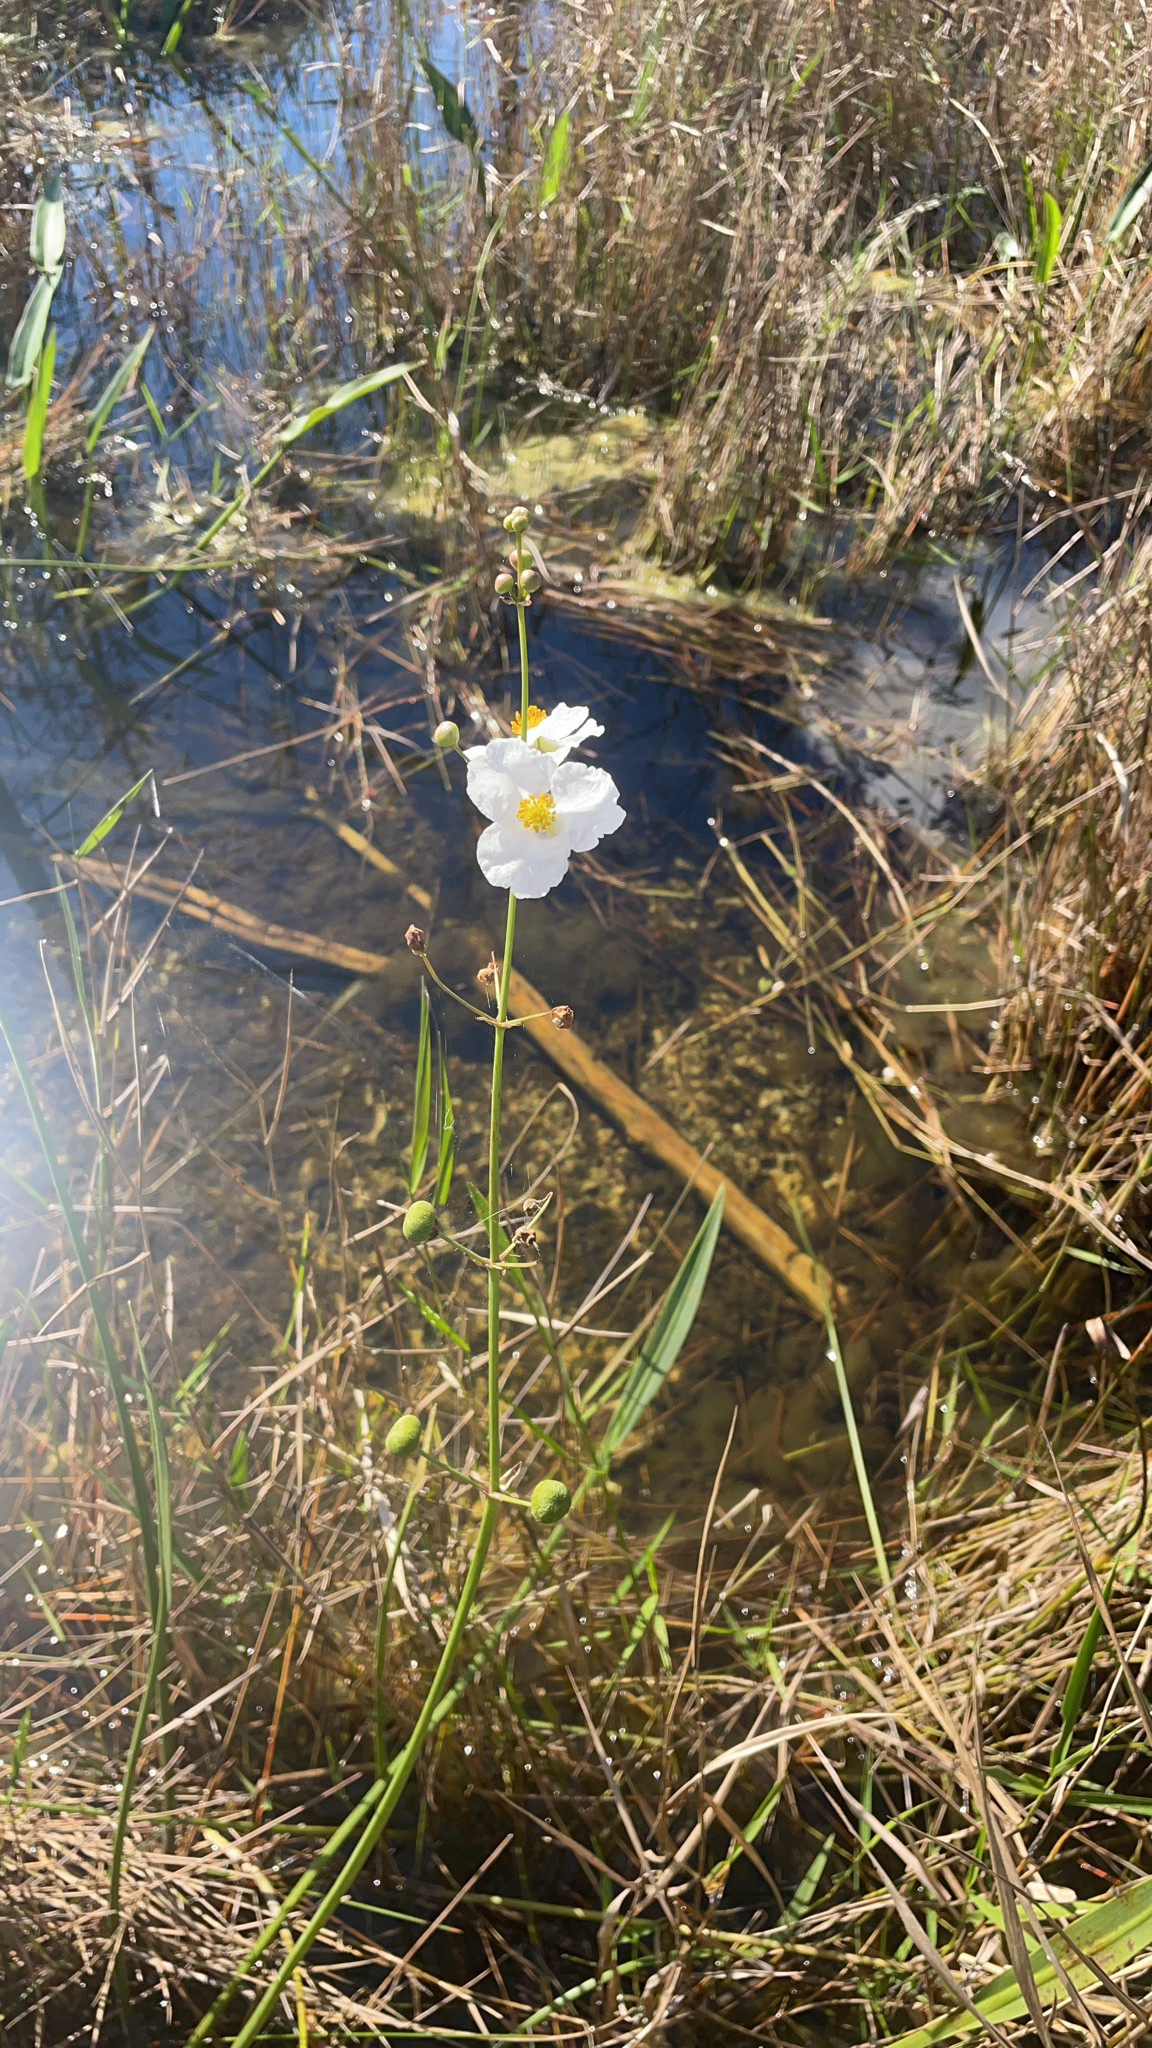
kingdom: Plantae
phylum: Tracheophyta
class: Liliopsida
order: Alismatales
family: Alismataceae
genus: Sagittaria
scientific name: Sagittaria lancifolia
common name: Lance-leaf arrowhead
